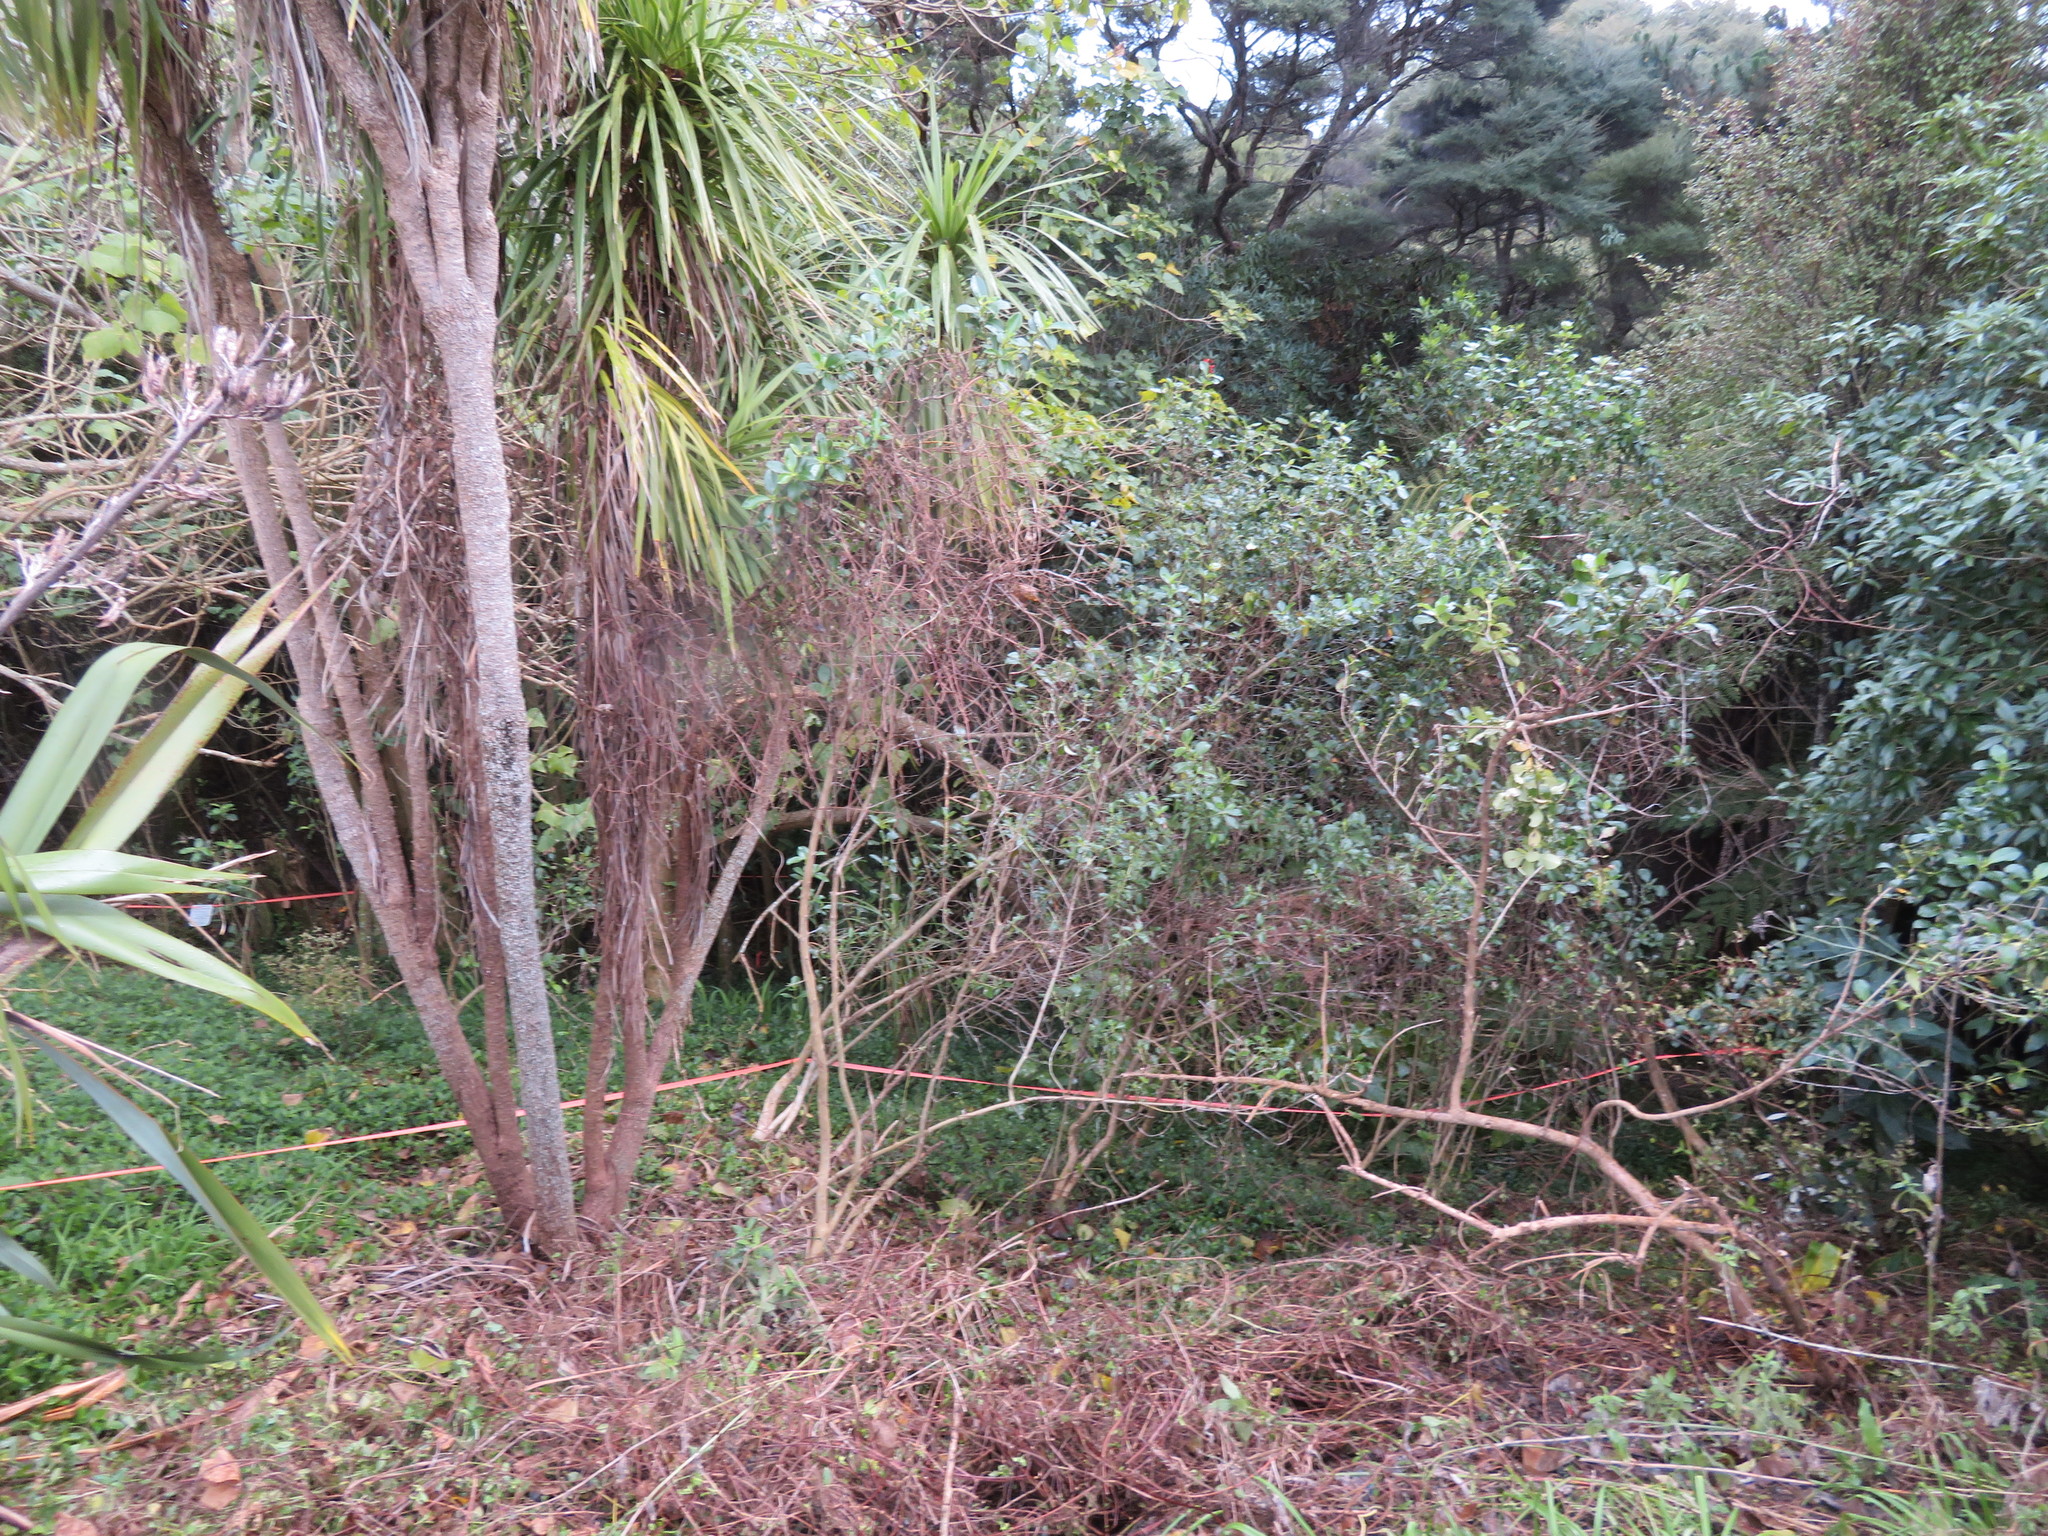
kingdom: Plantae
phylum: Tracheophyta
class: Liliopsida
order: Asparagales
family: Asparagaceae
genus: Cordyline
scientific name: Cordyline australis
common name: Cabbage-palm
